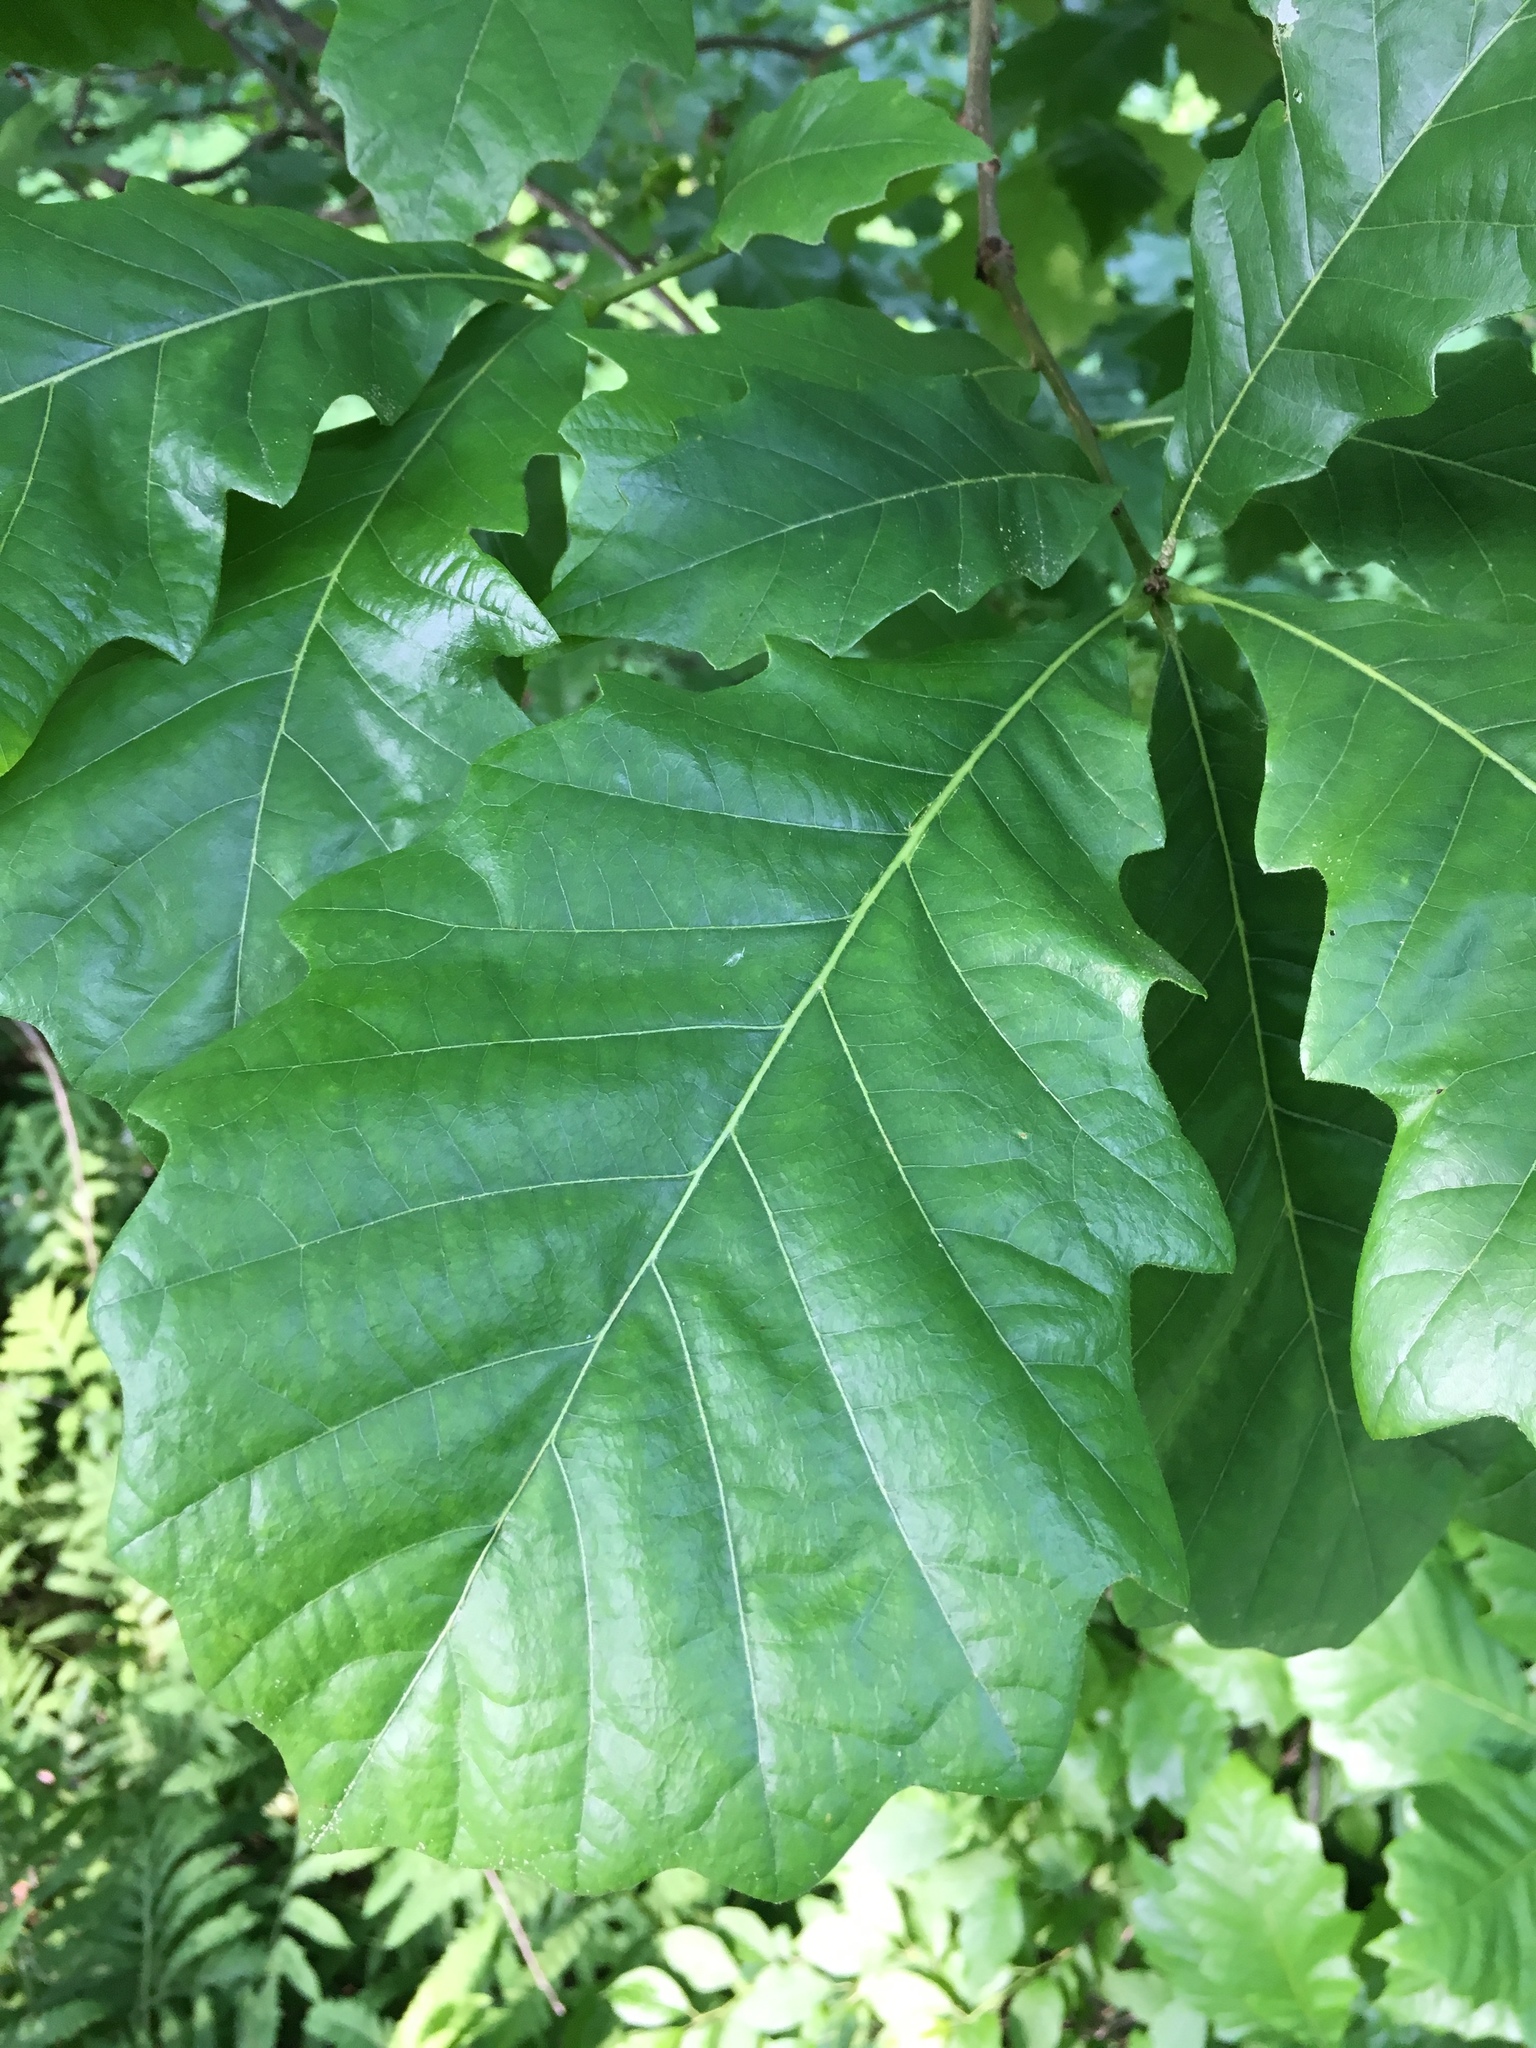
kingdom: Plantae
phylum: Tracheophyta
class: Magnoliopsida
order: Fagales
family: Fagaceae
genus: Quercus
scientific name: Quercus bicolor
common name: Swamp white oak
